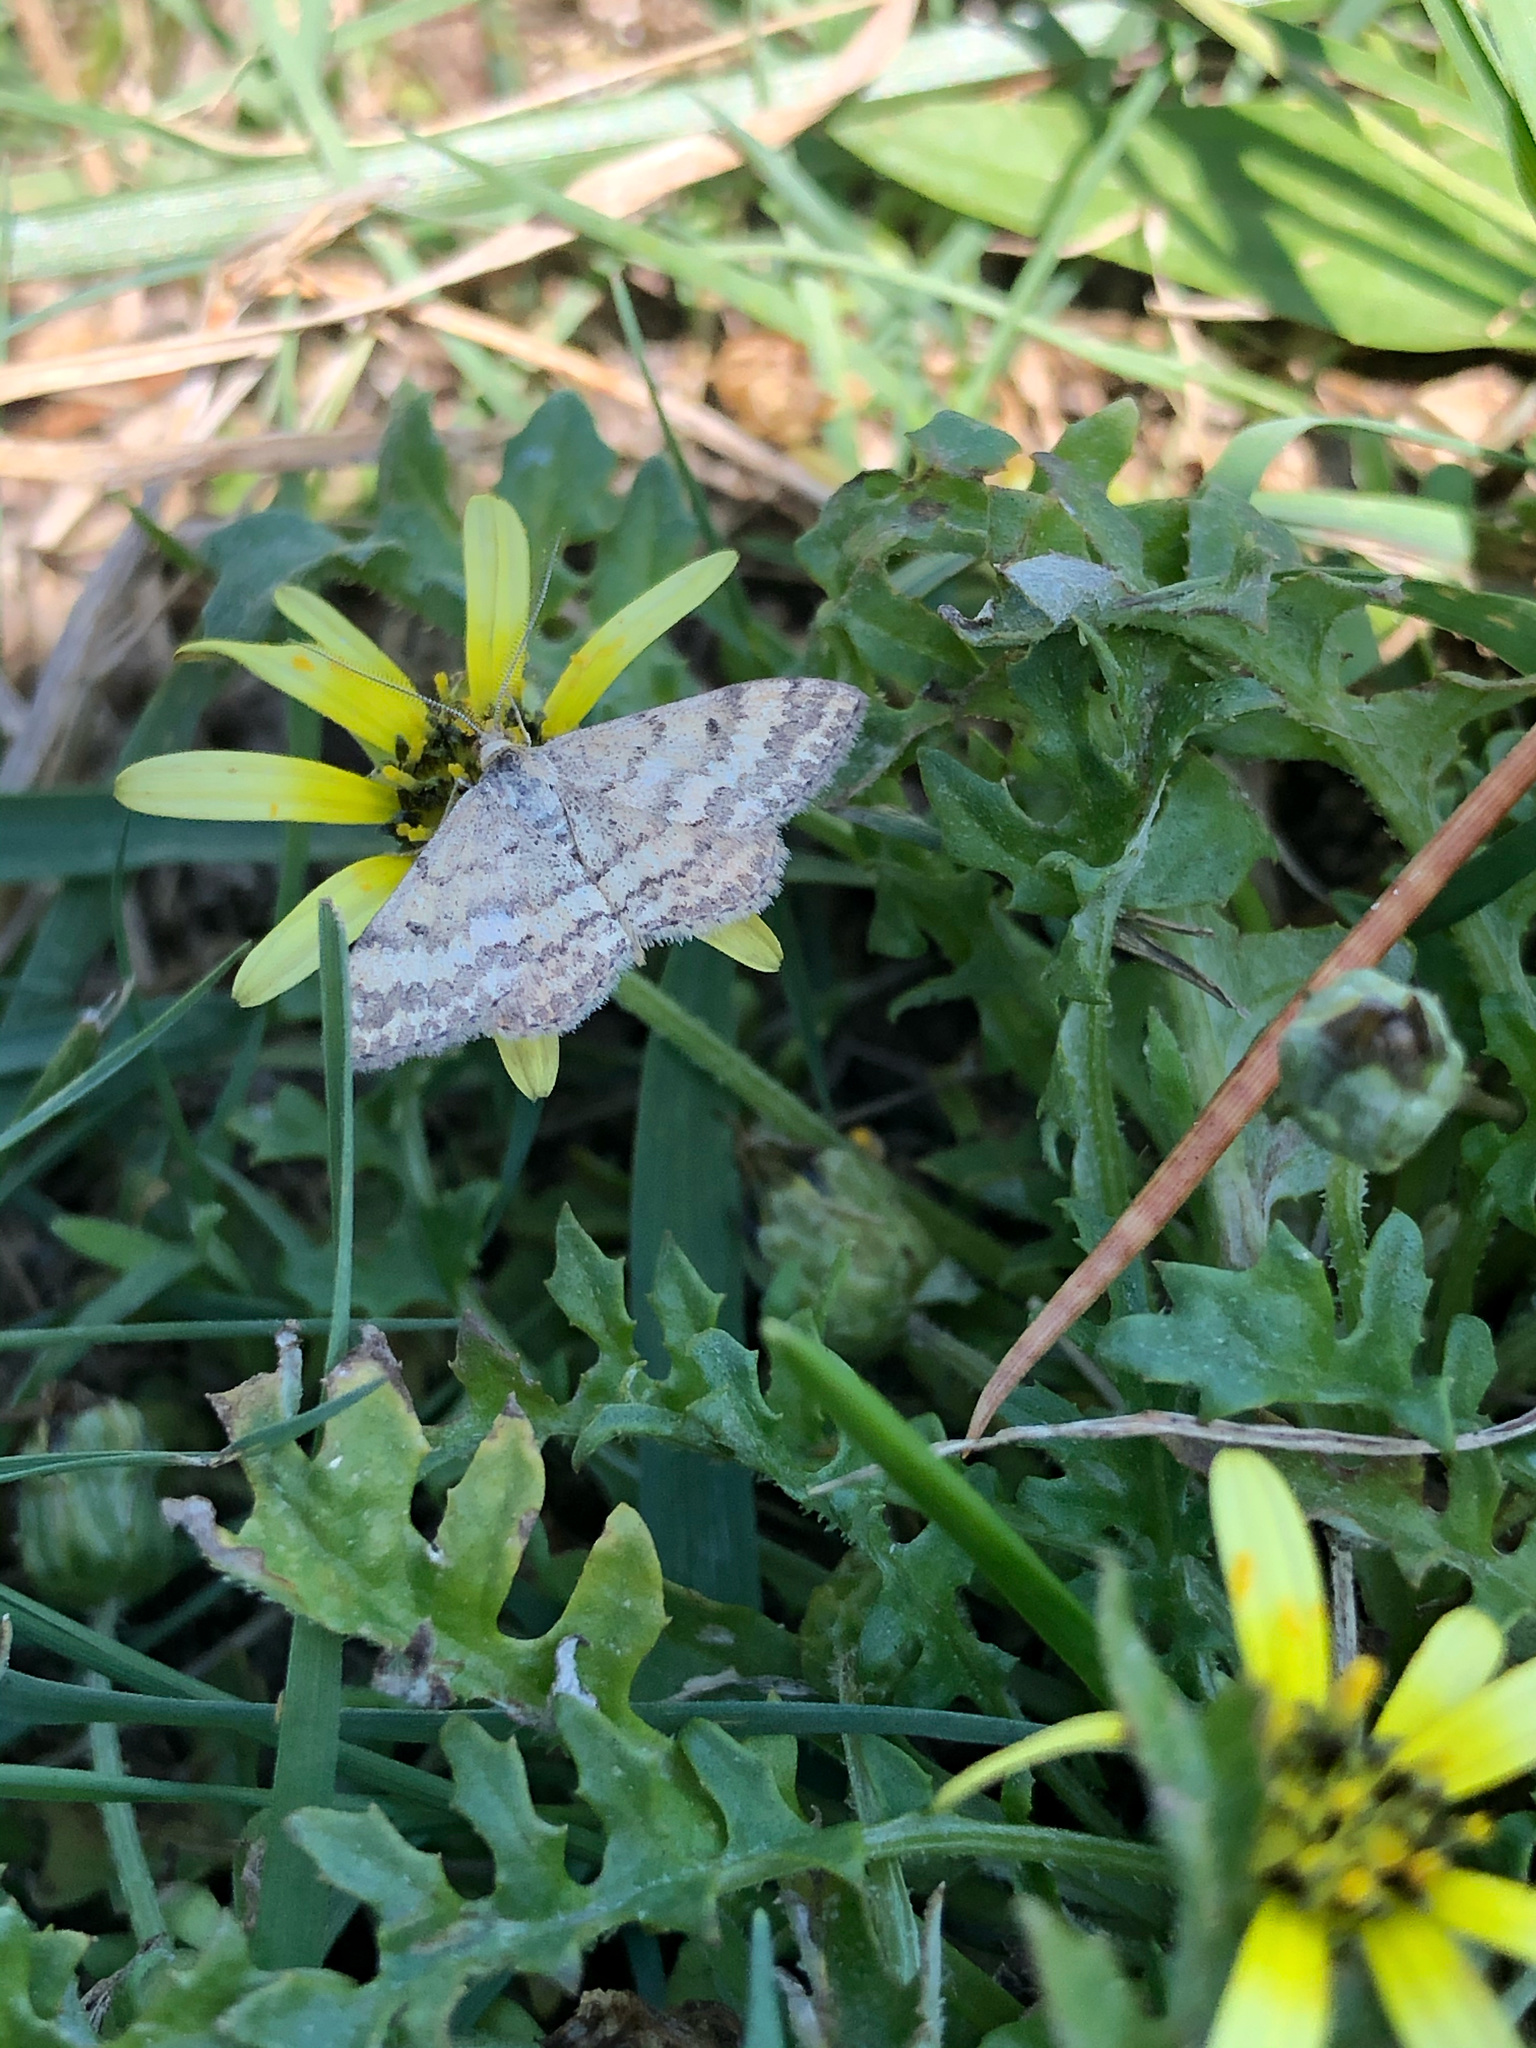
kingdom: Animalia
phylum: Arthropoda
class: Insecta
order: Lepidoptera
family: Geometridae
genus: Scopula
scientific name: Scopula rubraria
